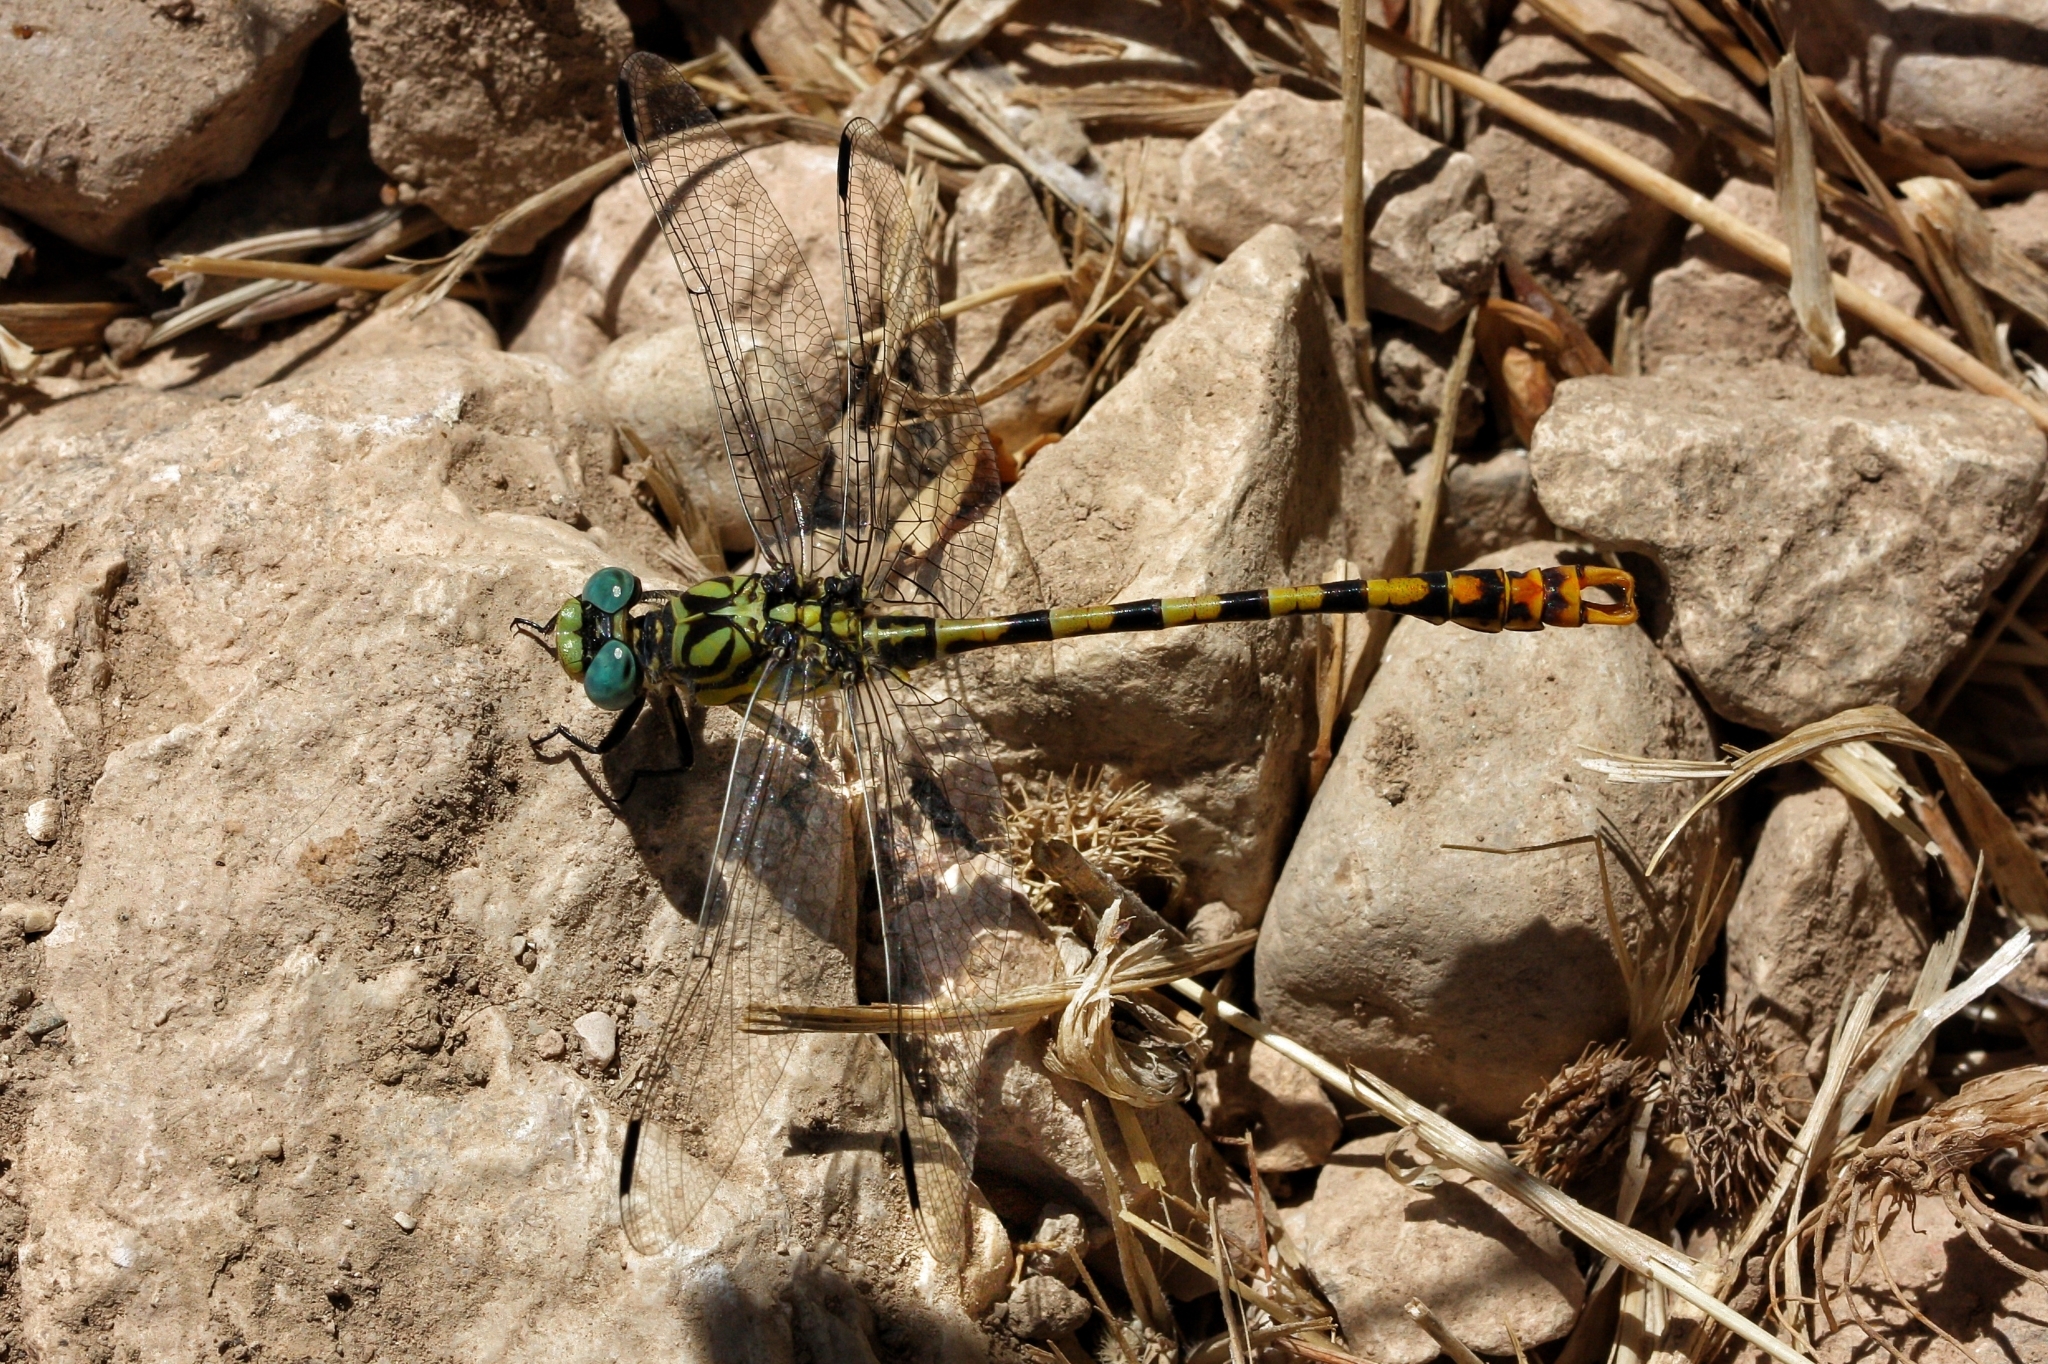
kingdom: Animalia
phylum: Arthropoda
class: Insecta
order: Odonata
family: Gomphidae
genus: Onychogomphus
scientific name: Onychogomphus forcipatus
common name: Small pincertail
